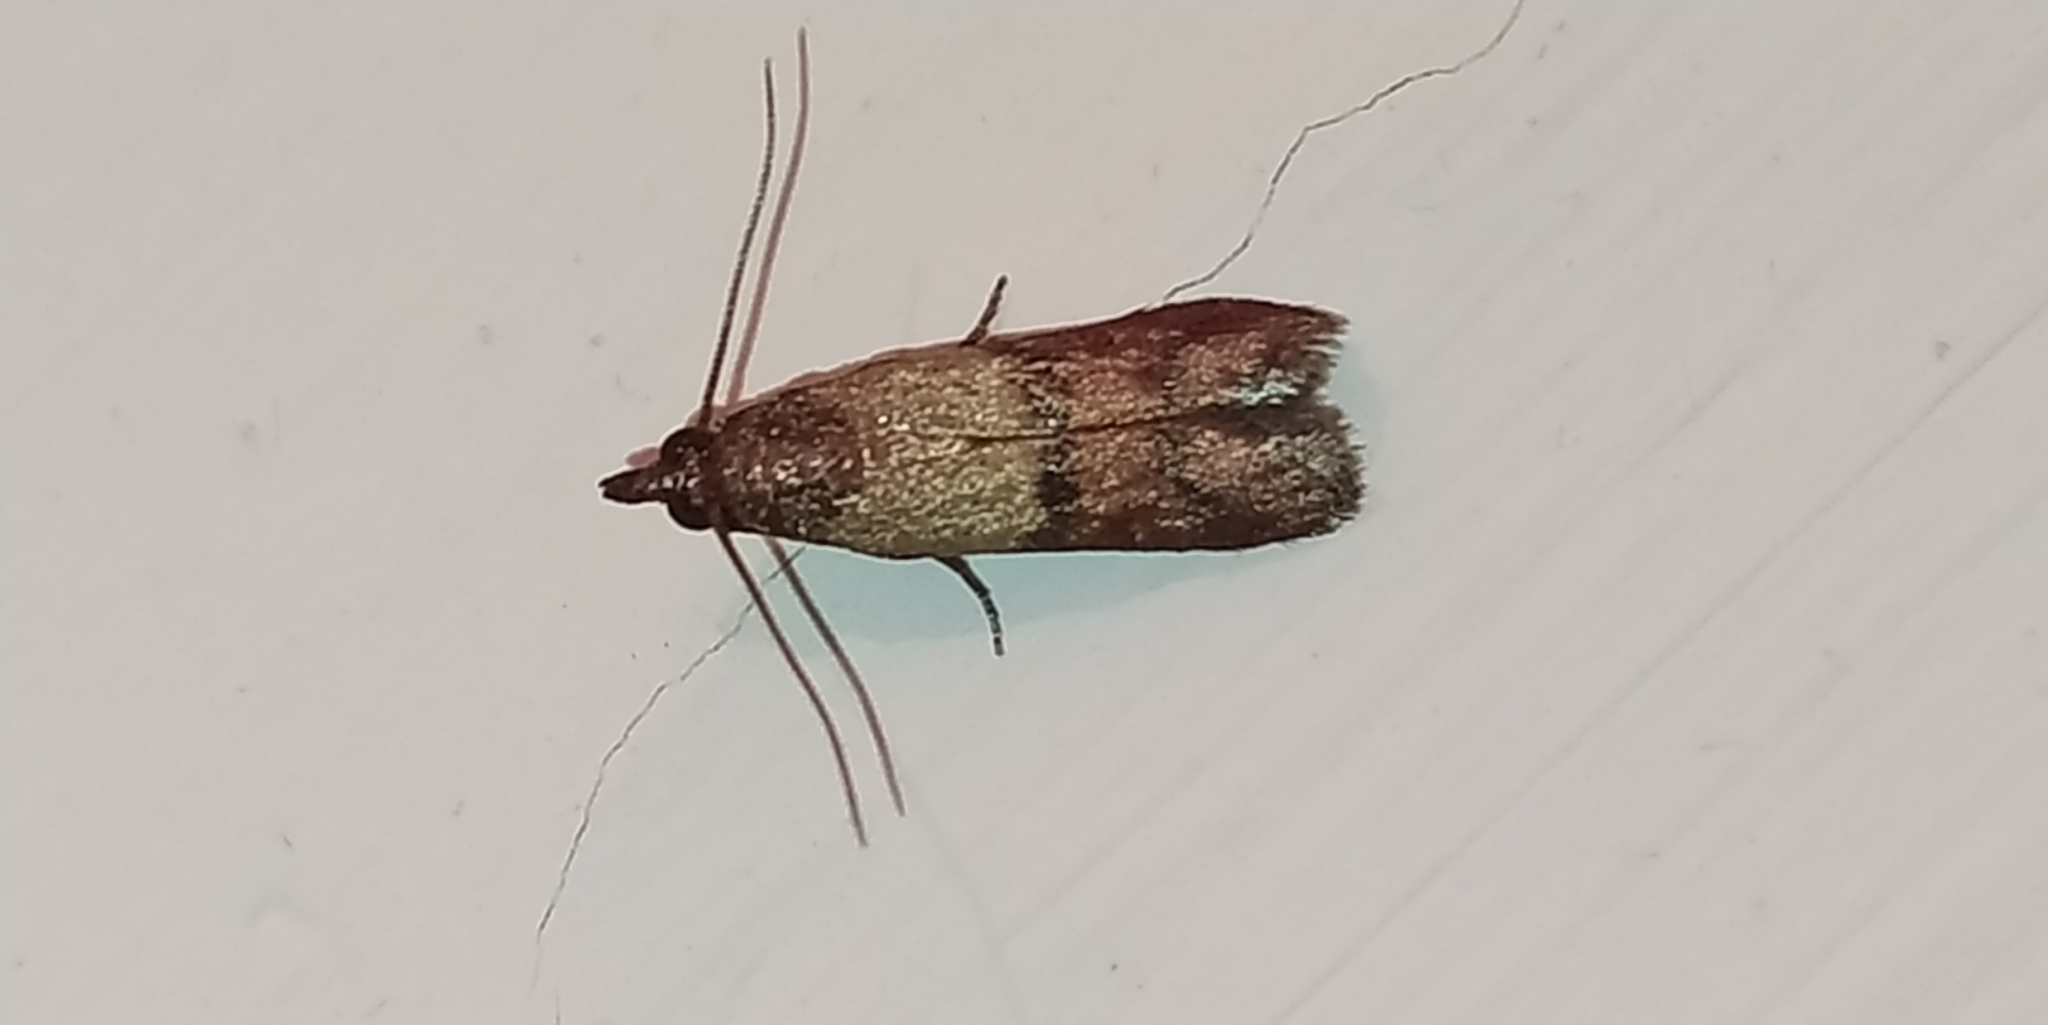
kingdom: Animalia
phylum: Arthropoda
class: Insecta
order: Lepidoptera
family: Pyralidae
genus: Plodia
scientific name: Plodia interpunctella
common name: Indian meal moth
